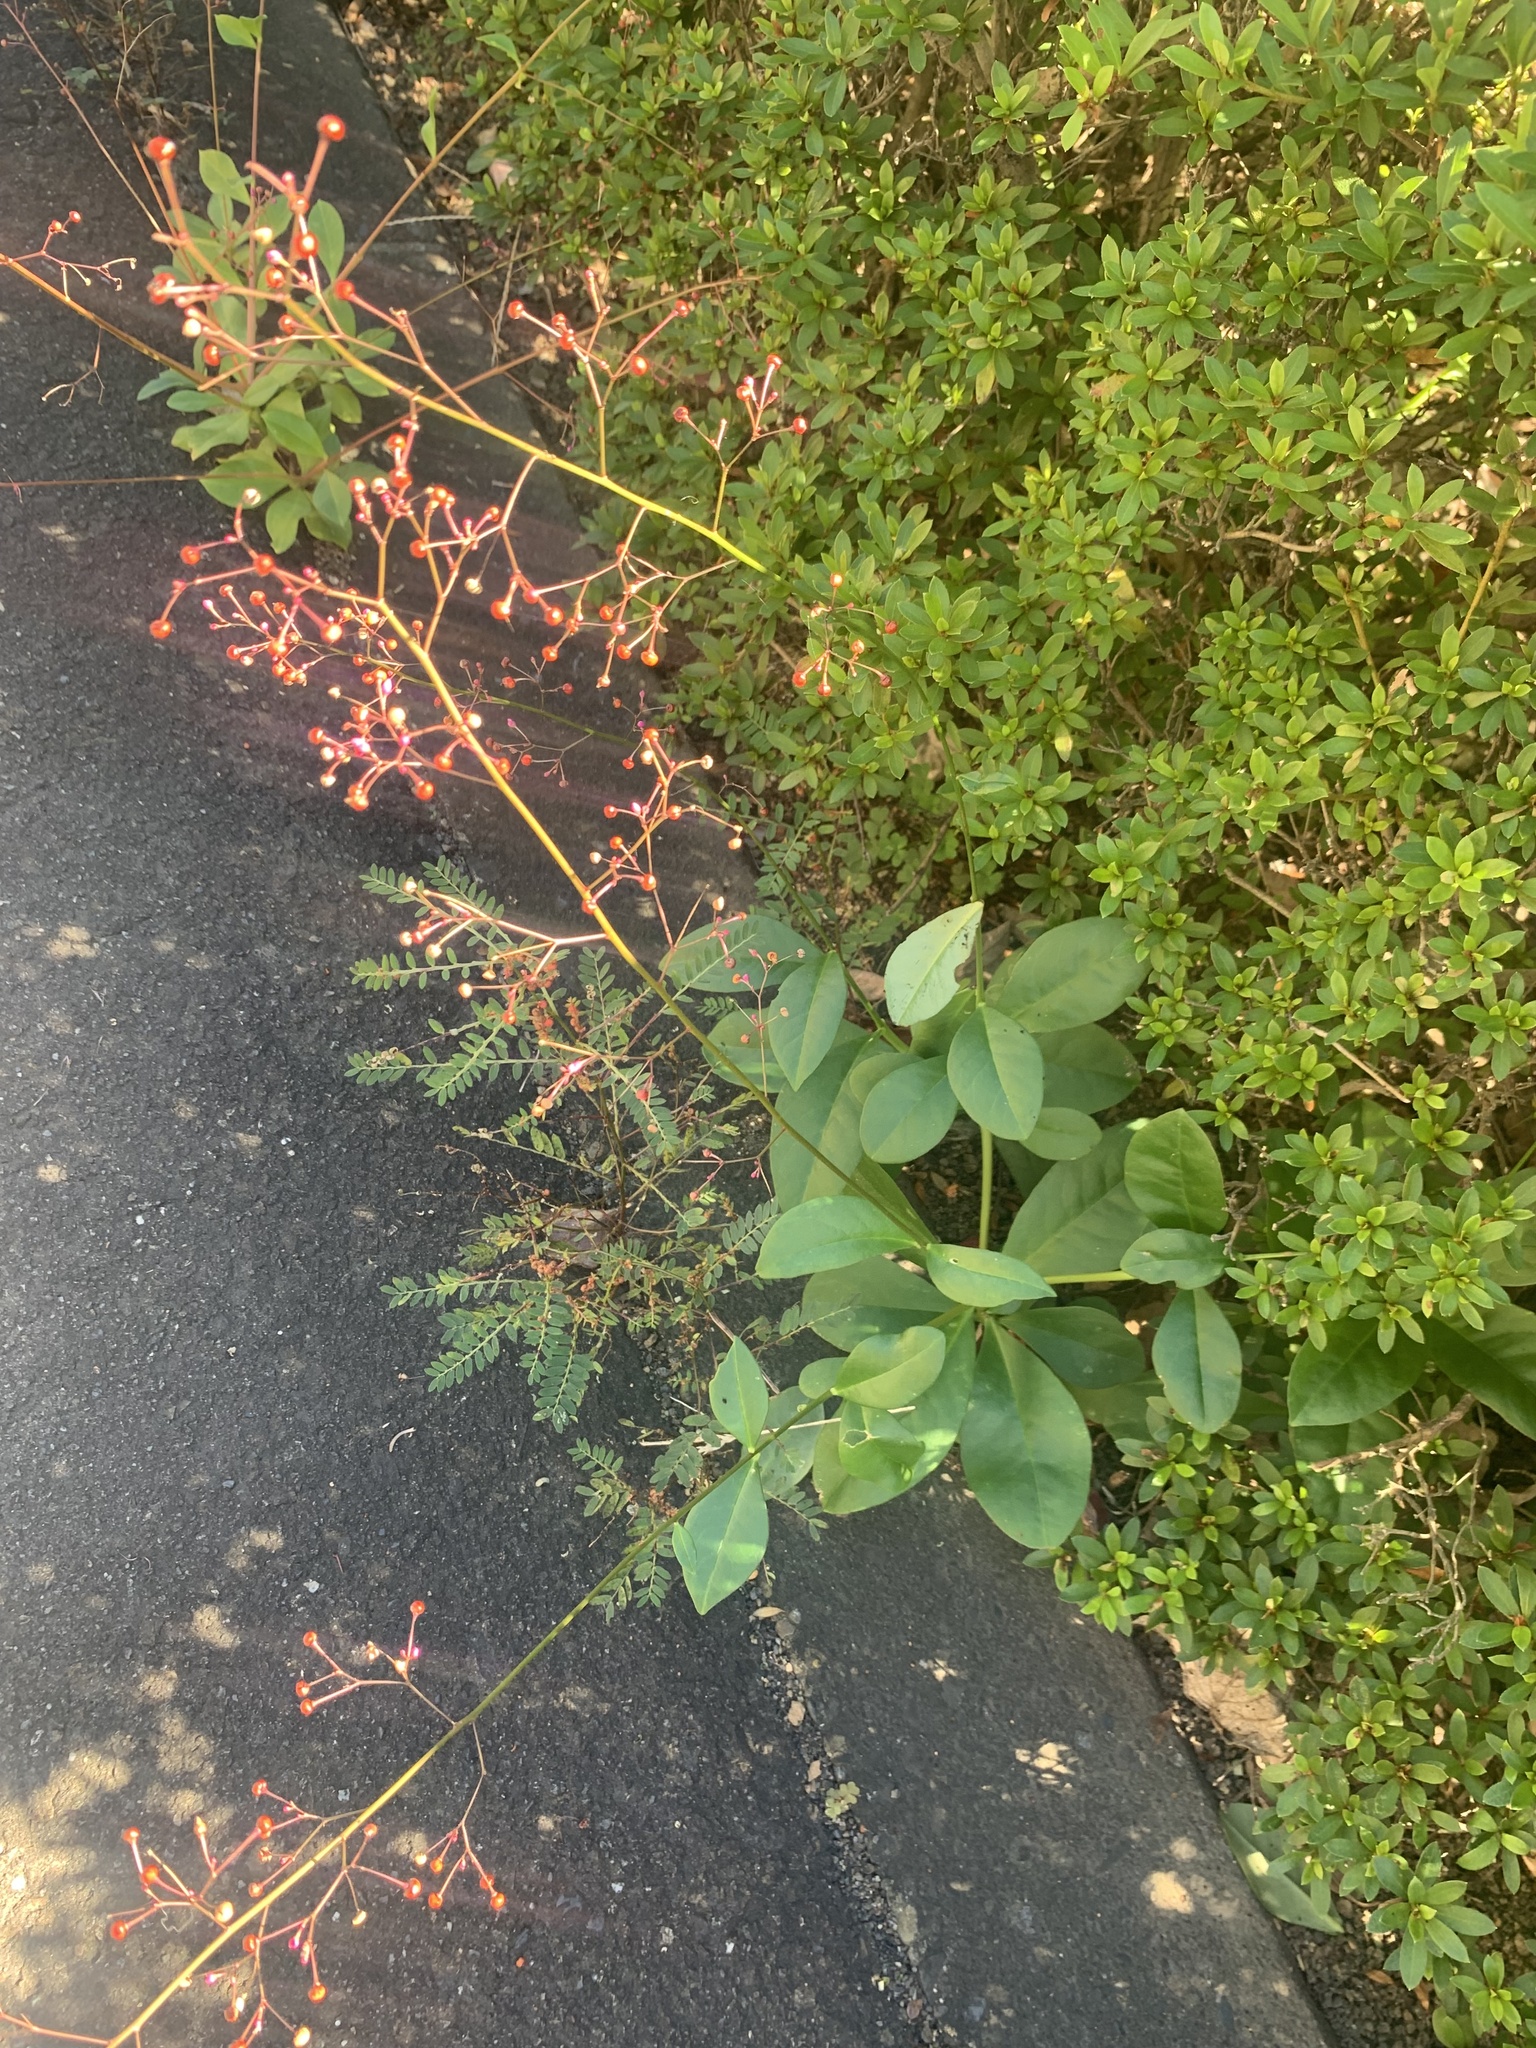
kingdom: Plantae
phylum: Tracheophyta
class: Magnoliopsida
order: Caryophyllales
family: Talinaceae
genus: Talinum
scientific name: Talinum paniculatum
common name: Jewels of opar
